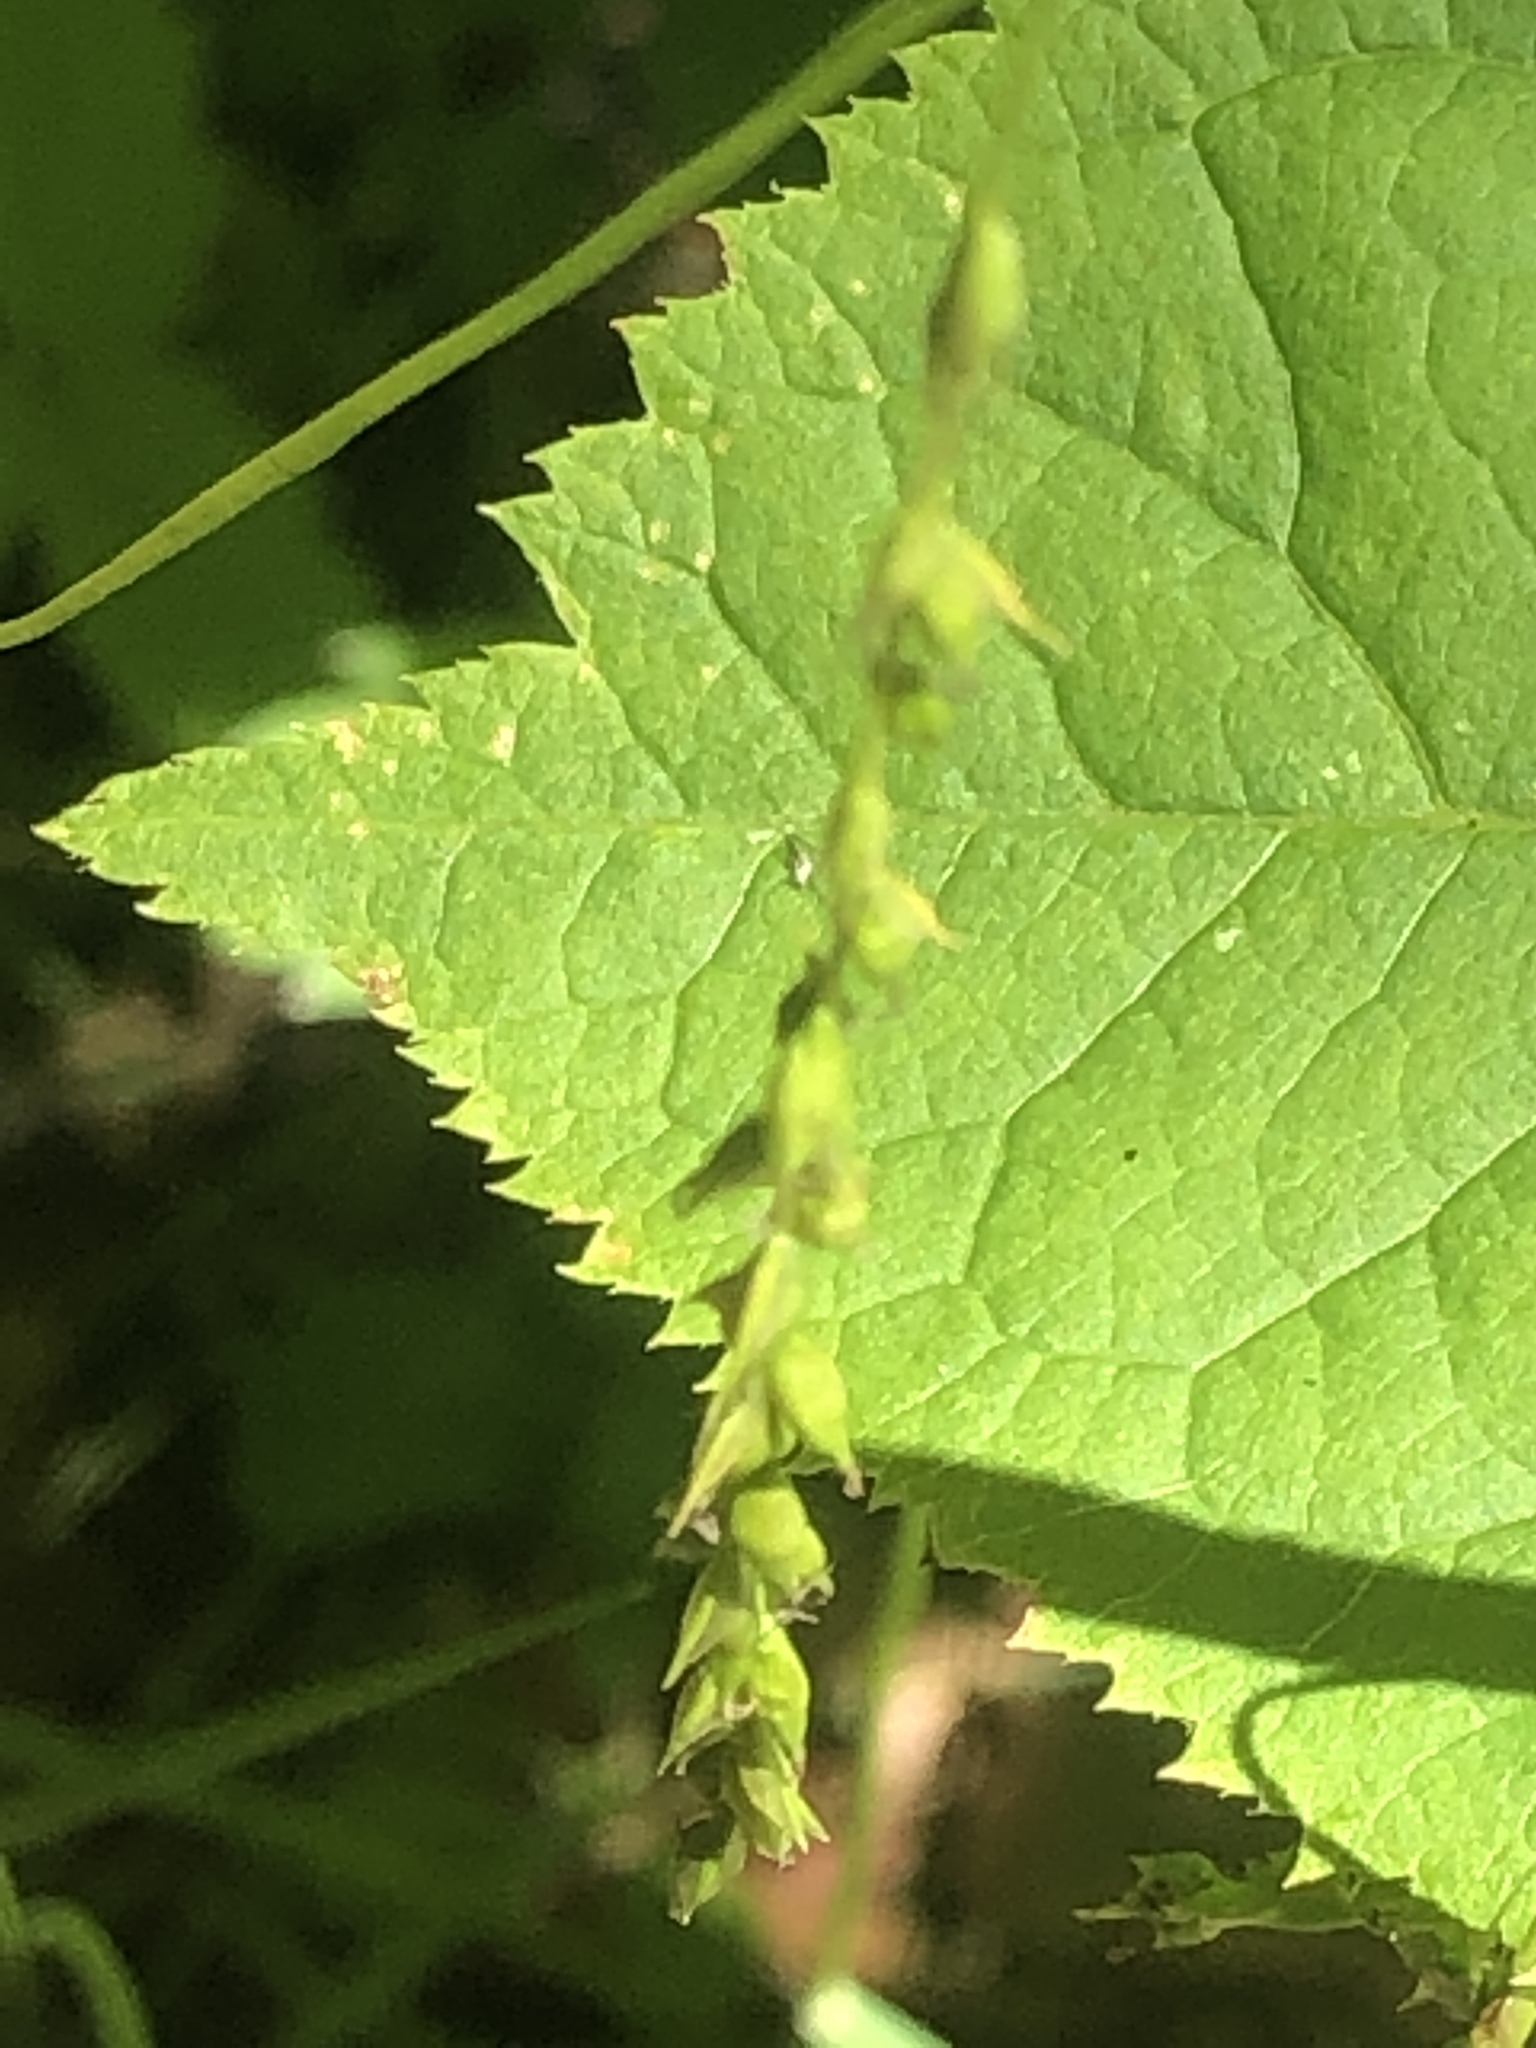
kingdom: Plantae
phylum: Tracheophyta
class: Liliopsida
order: Poales
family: Cyperaceae
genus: Carex
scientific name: Carex arctata
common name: Black sedge
